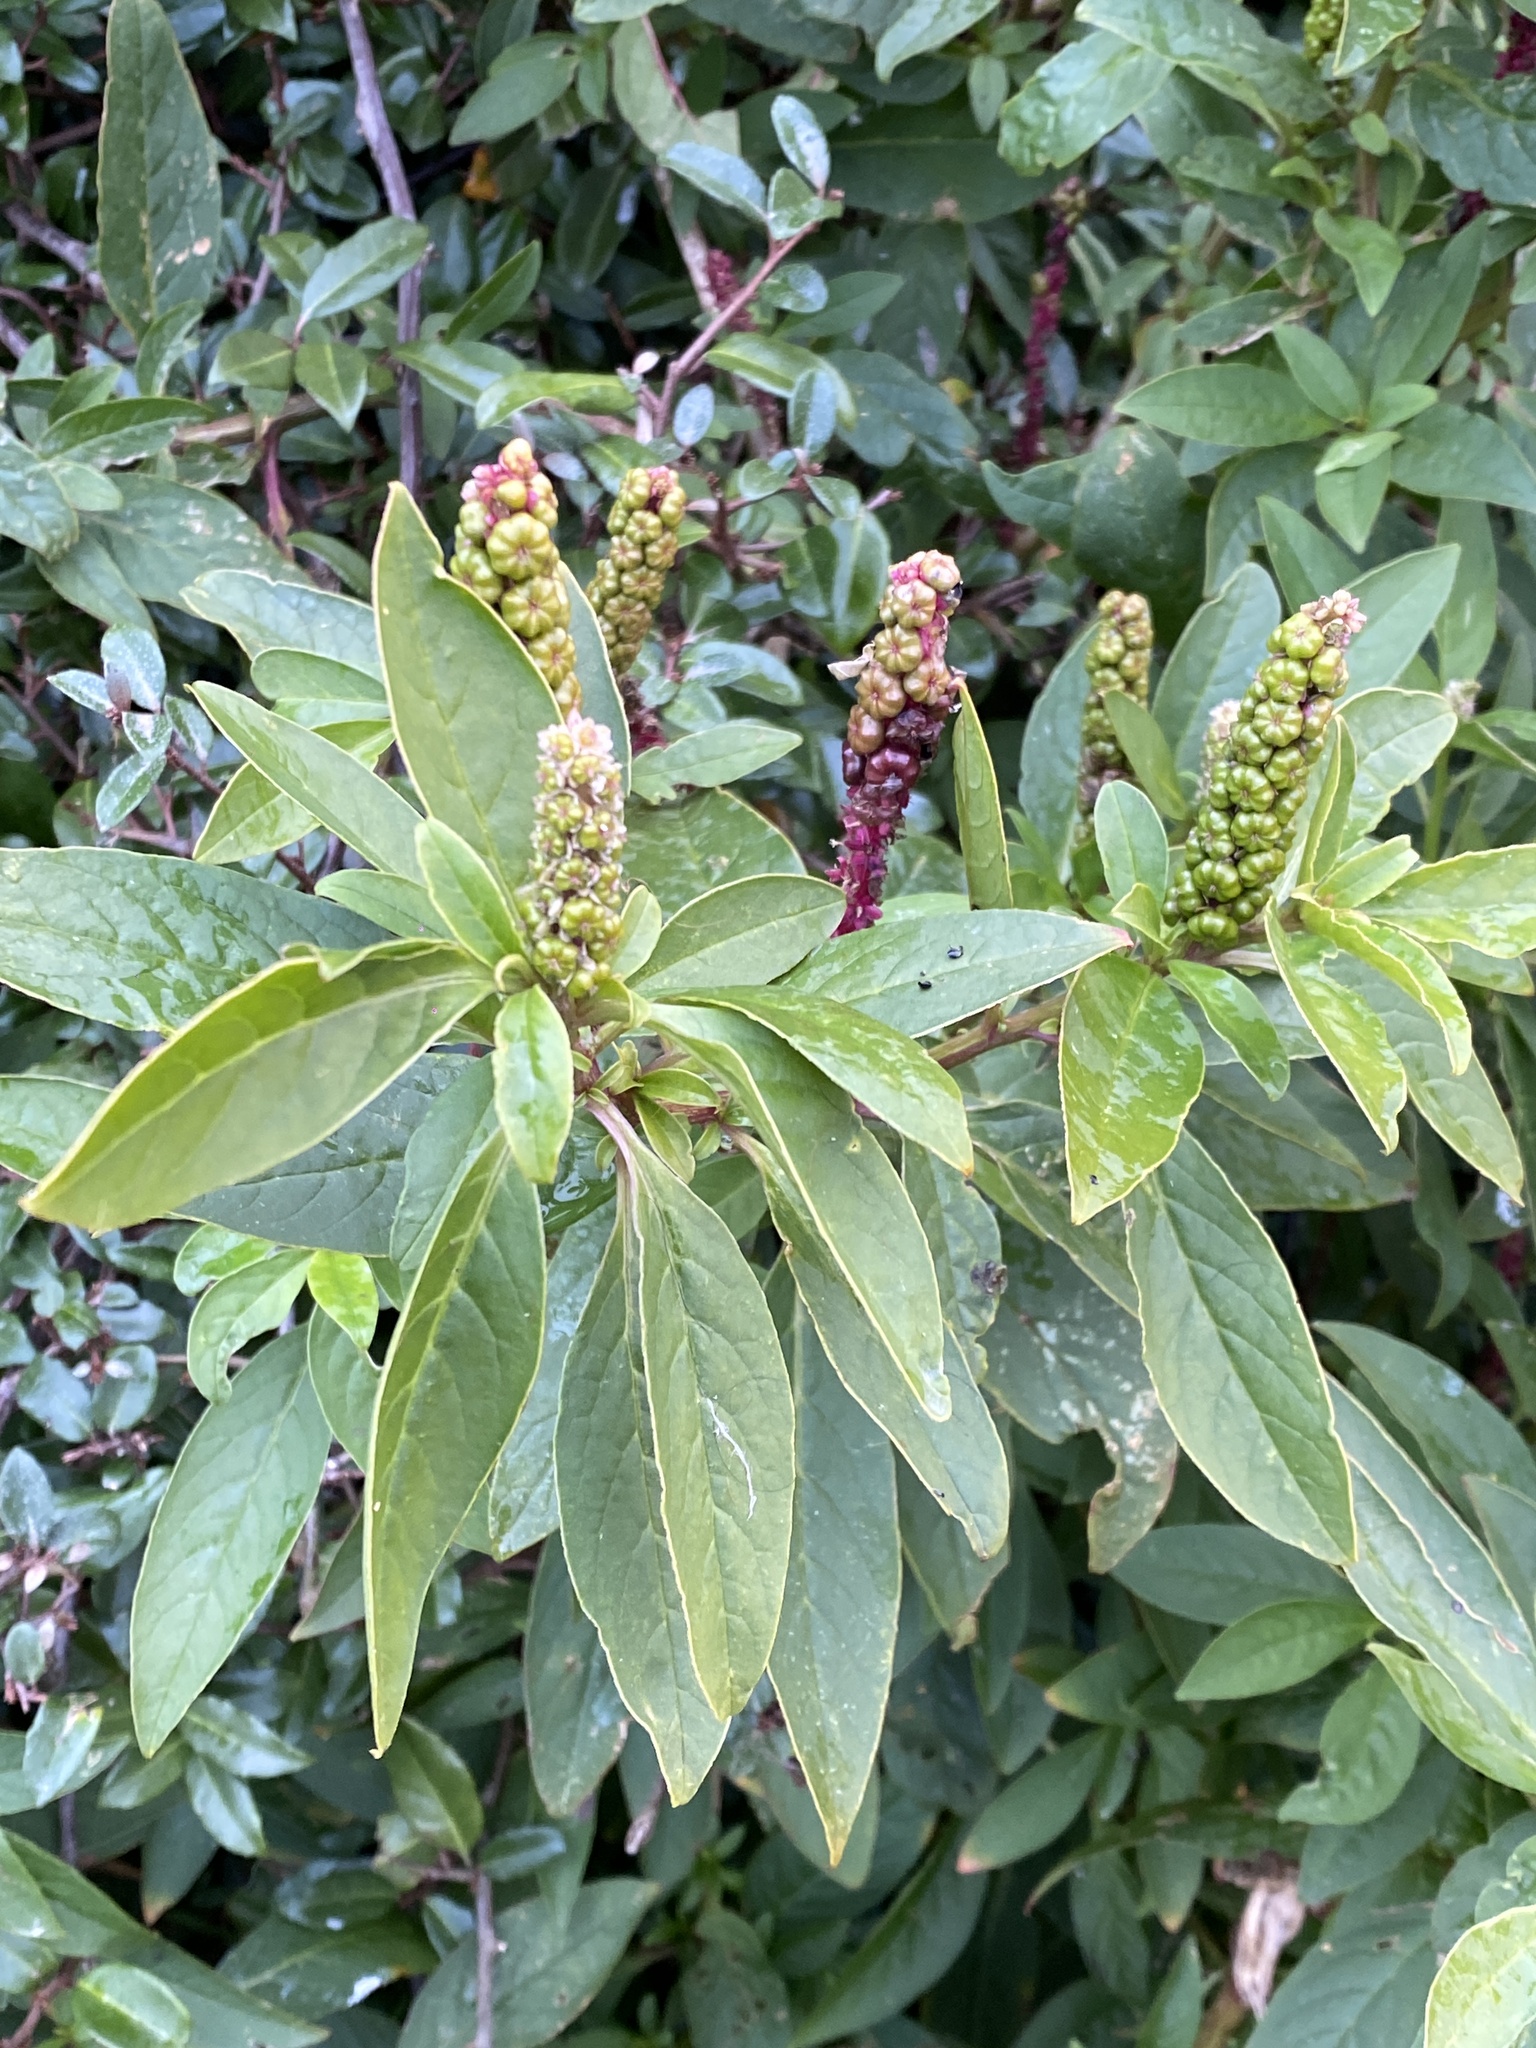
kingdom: Plantae
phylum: Tracheophyta
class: Magnoliopsida
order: Caryophyllales
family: Phytolaccaceae
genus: Phytolacca
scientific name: Phytolacca icosandra
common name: Button pokeweed
